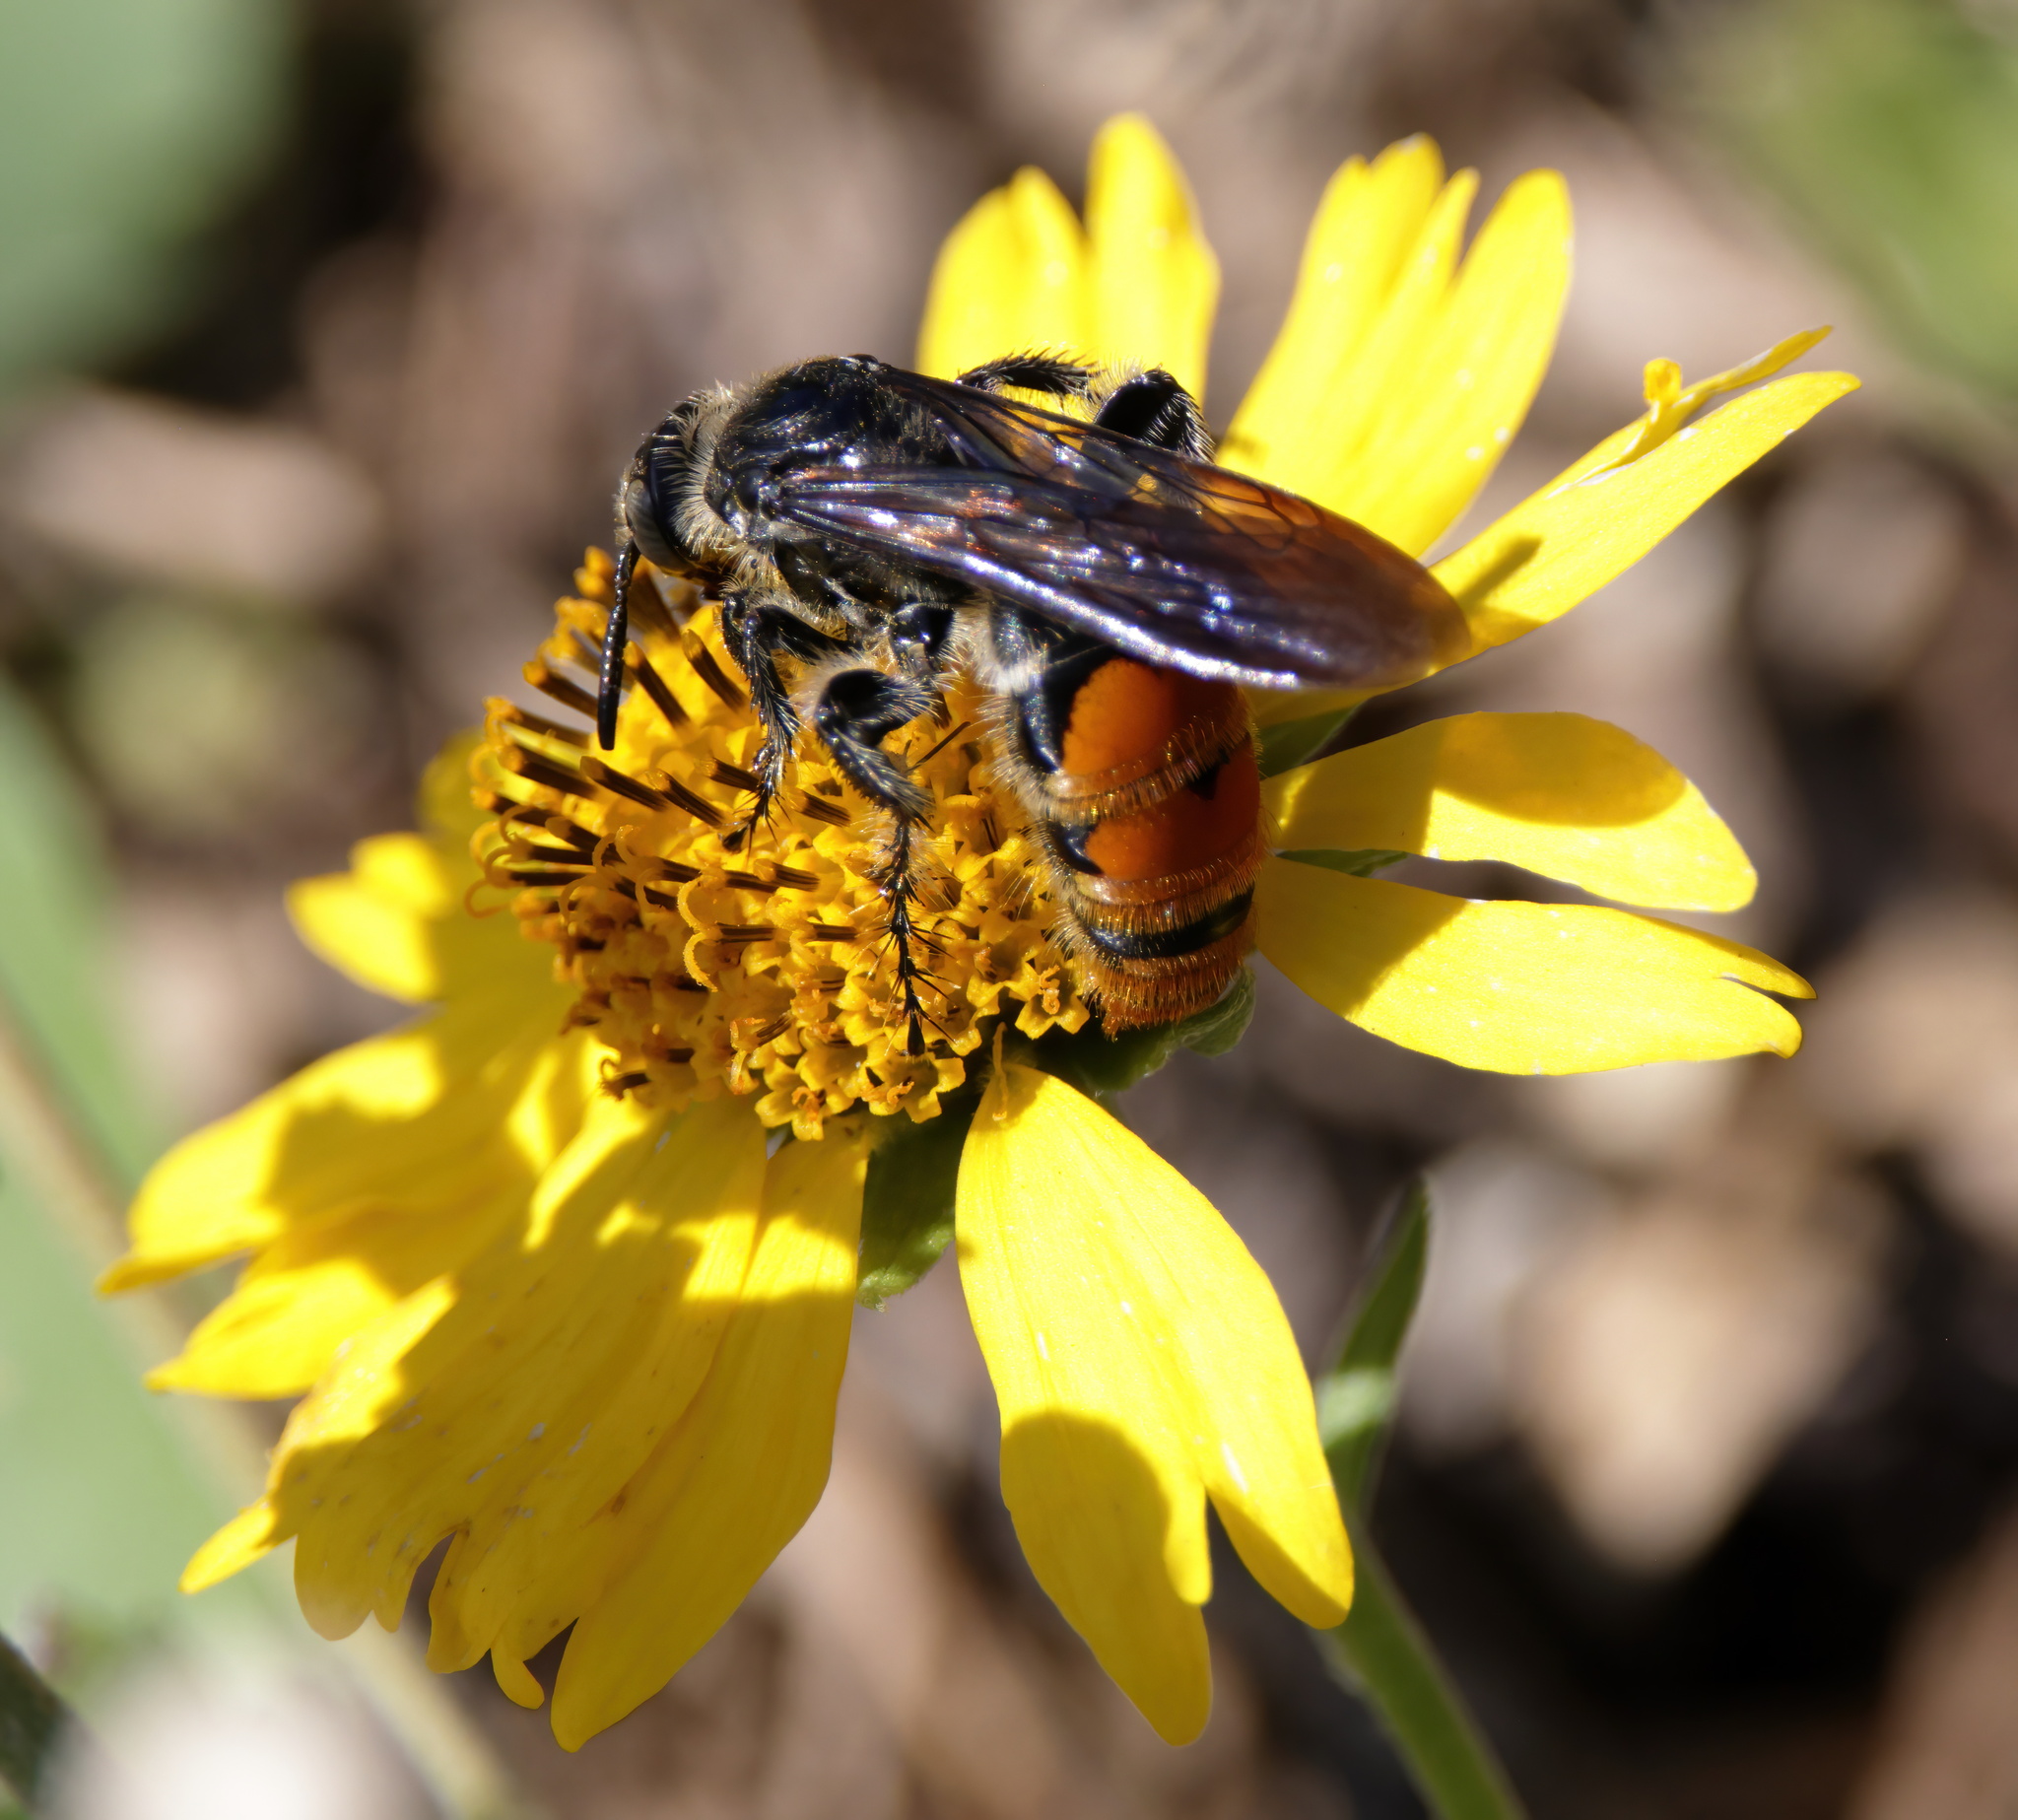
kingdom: Animalia
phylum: Arthropoda
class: Insecta
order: Hymenoptera
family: Scoliidae
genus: Dielis
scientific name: Dielis tolteca
